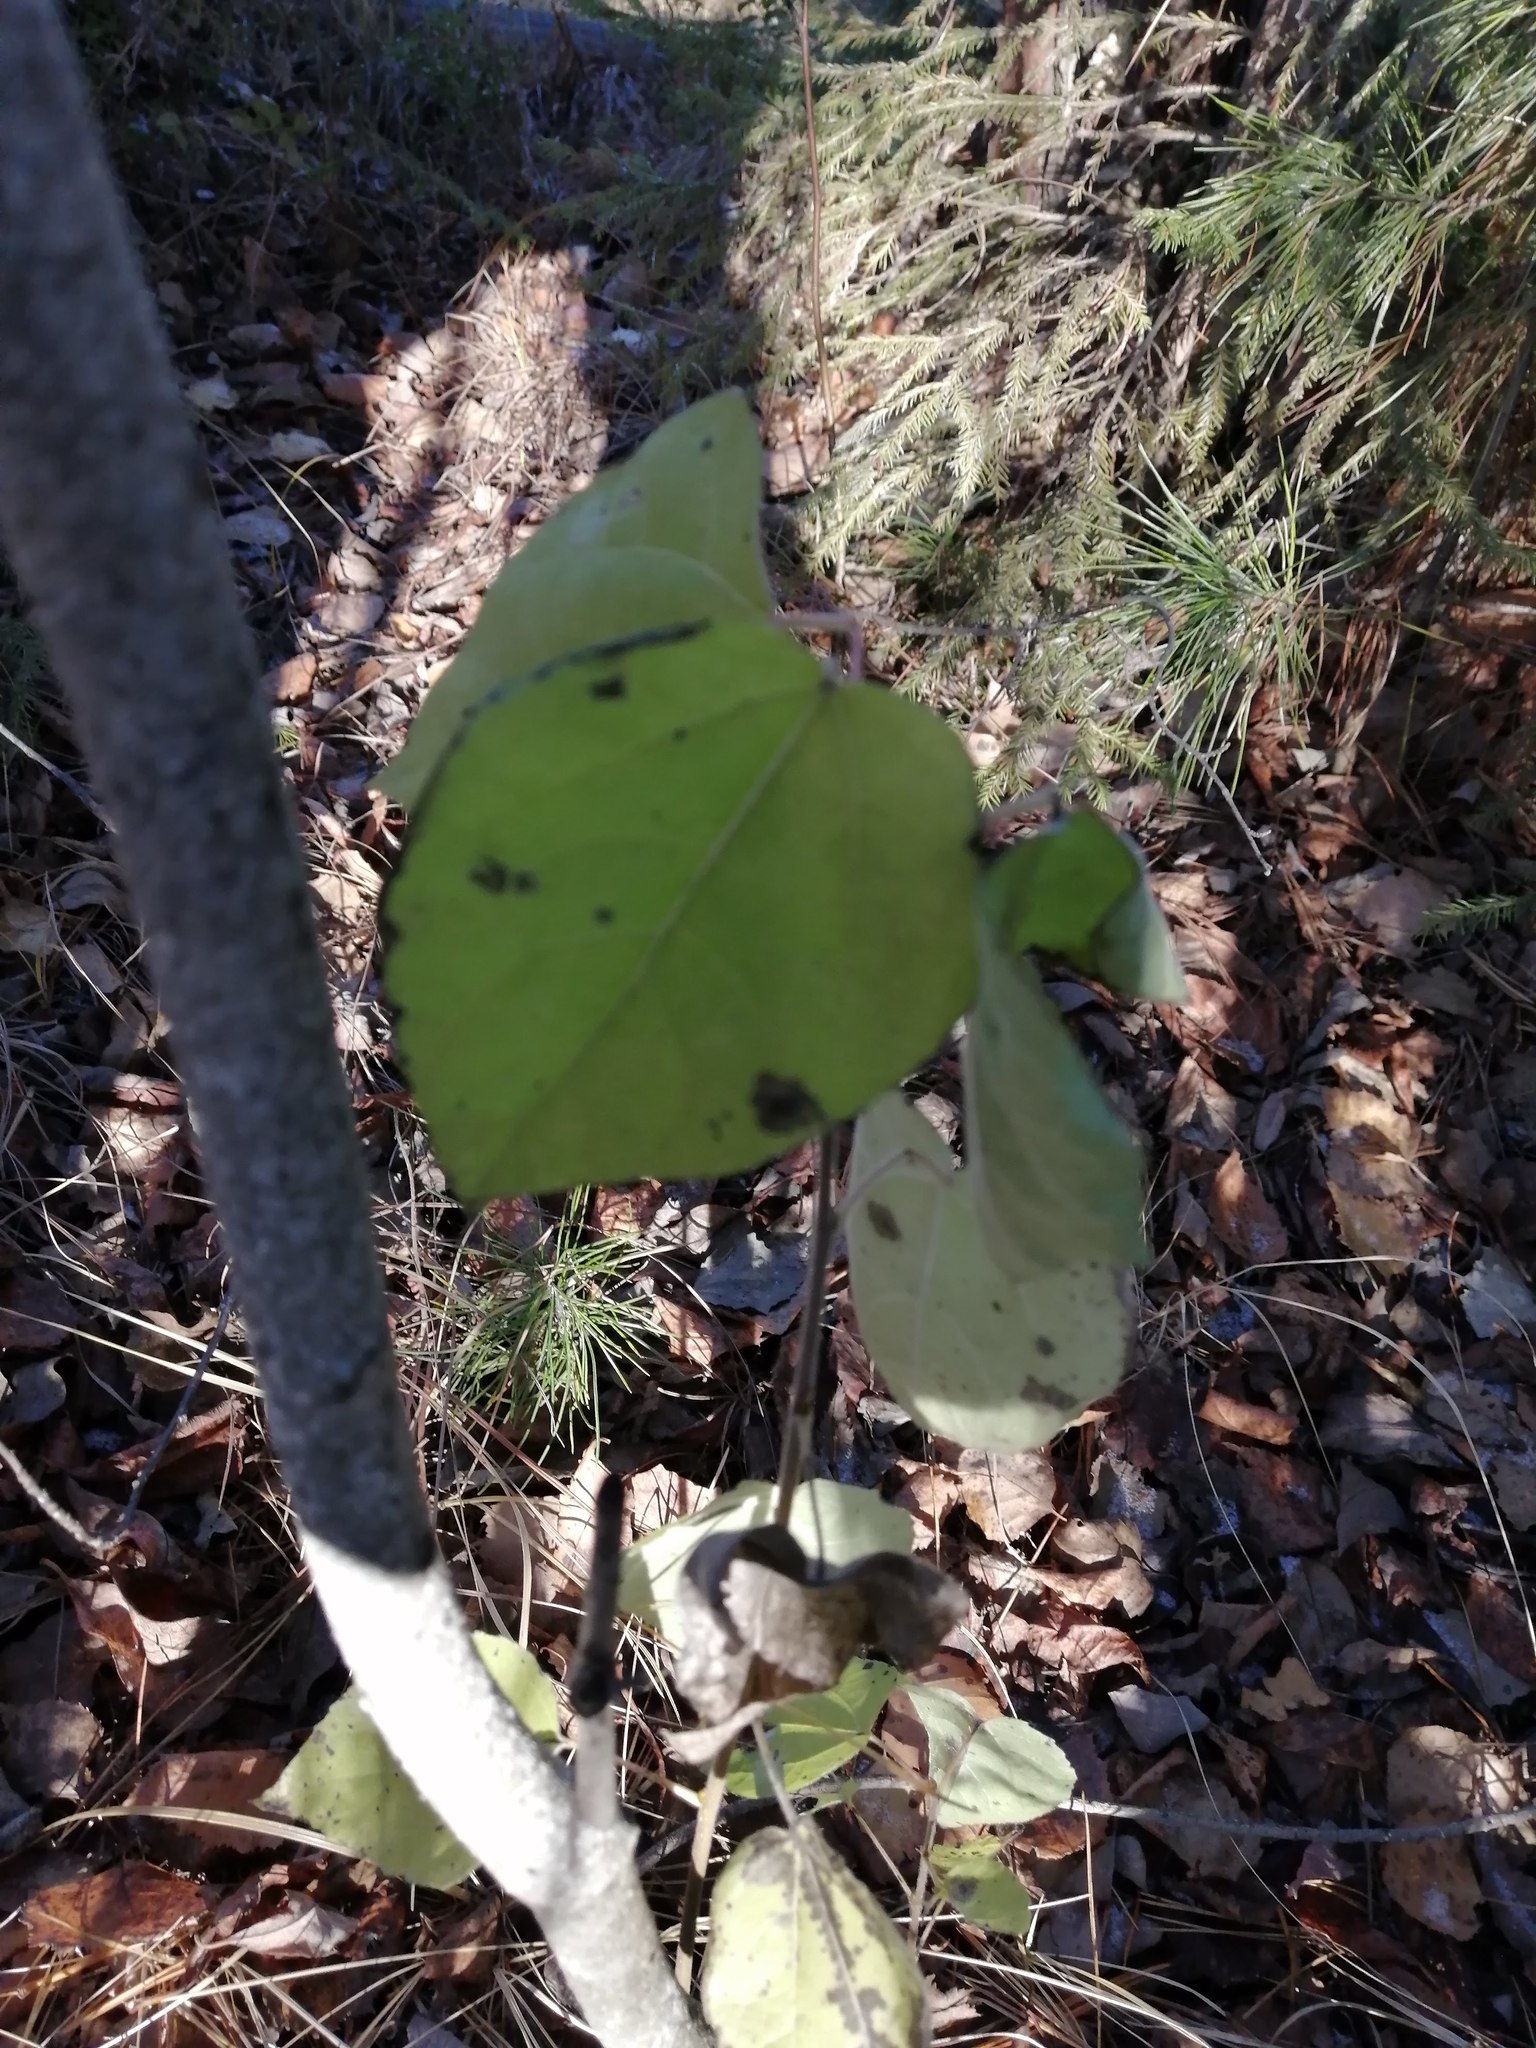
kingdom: Plantae
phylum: Tracheophyta
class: Magnoliopsida
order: Malpighiales
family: Salicaceae
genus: Populus
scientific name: Populus tremula
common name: European aspen
